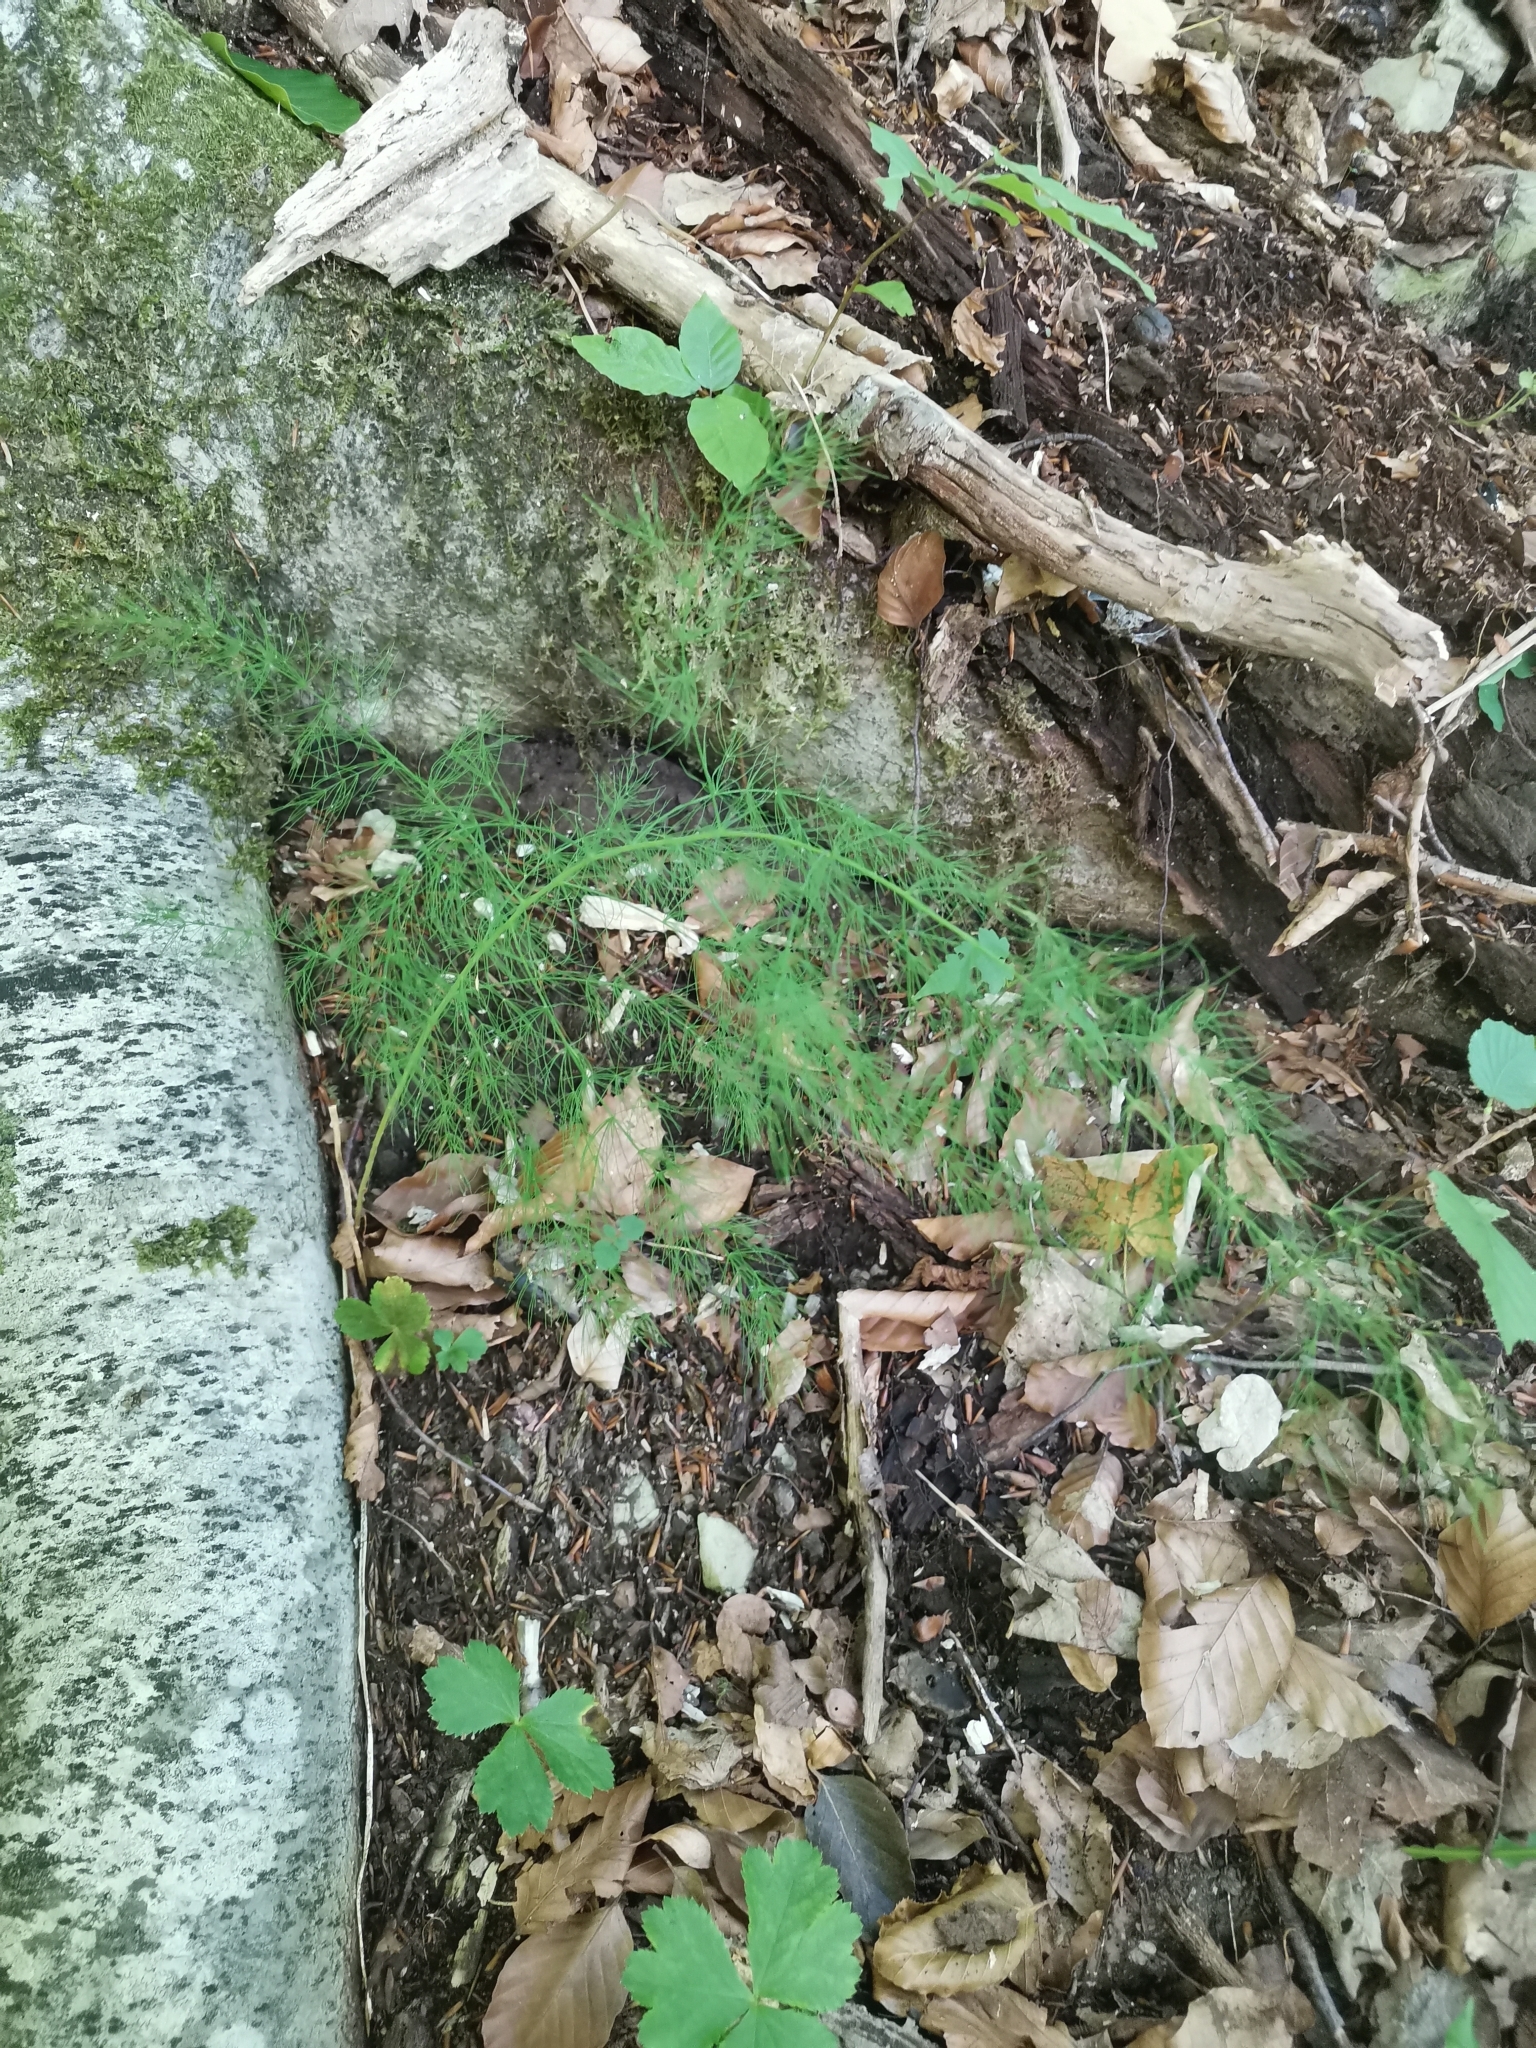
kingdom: Plantae
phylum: Tracheophyta
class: Liliopsida
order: Asparagales
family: Asparagaceae
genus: Asparagus
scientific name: Asparagus tenuifolius
